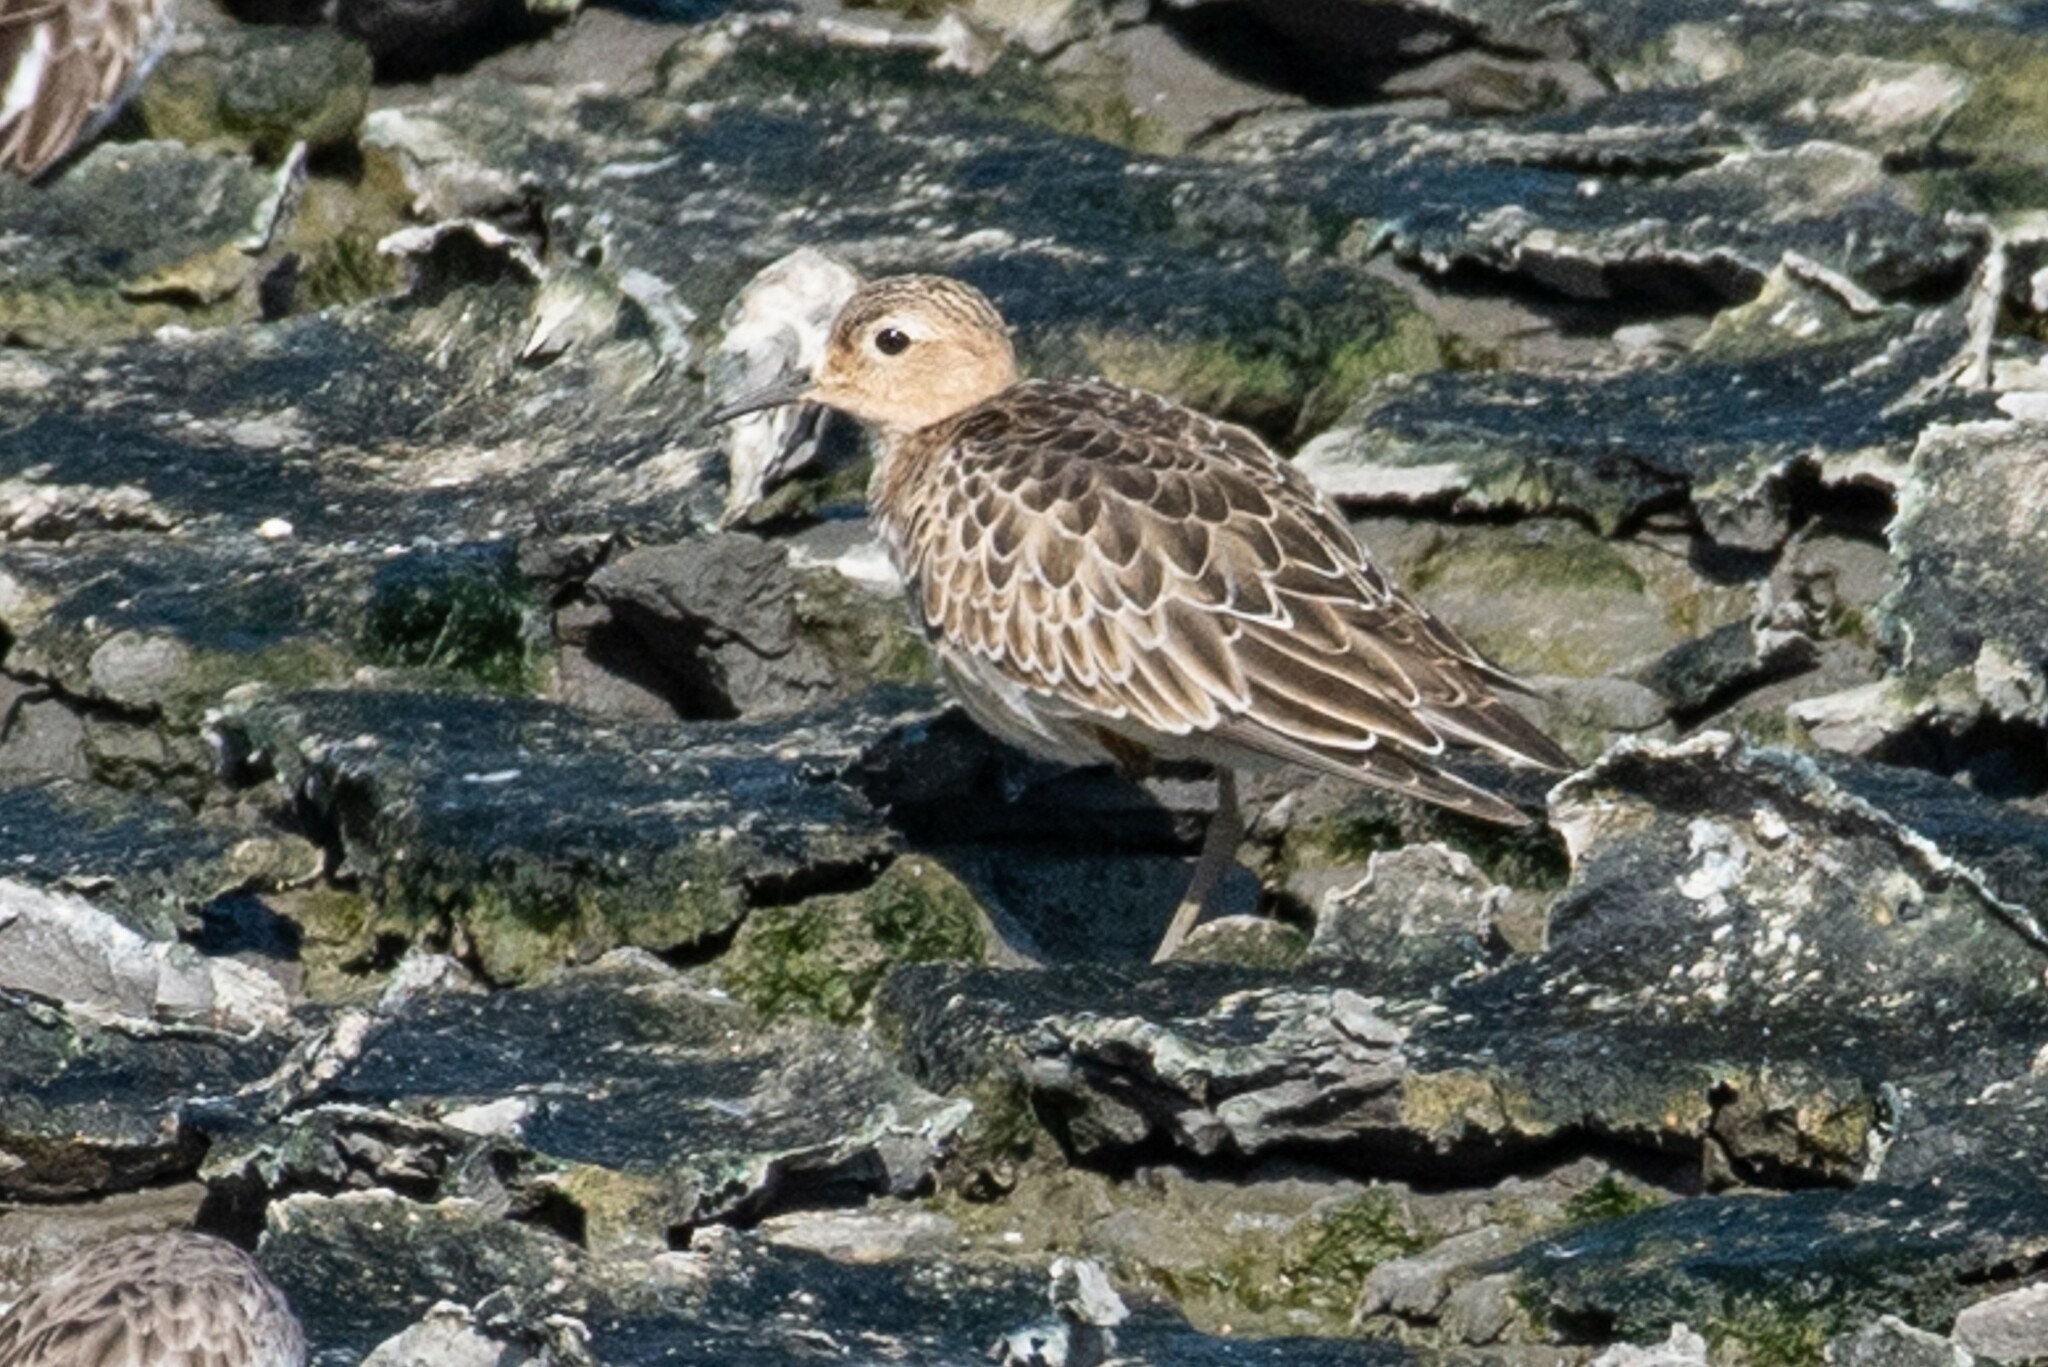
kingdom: Animalia
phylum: Chordata
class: Aves
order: Charadriiformes
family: Scolopacidae
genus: Calidris
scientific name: Calidris subruficollis
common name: Buff-breasted sandpiper
